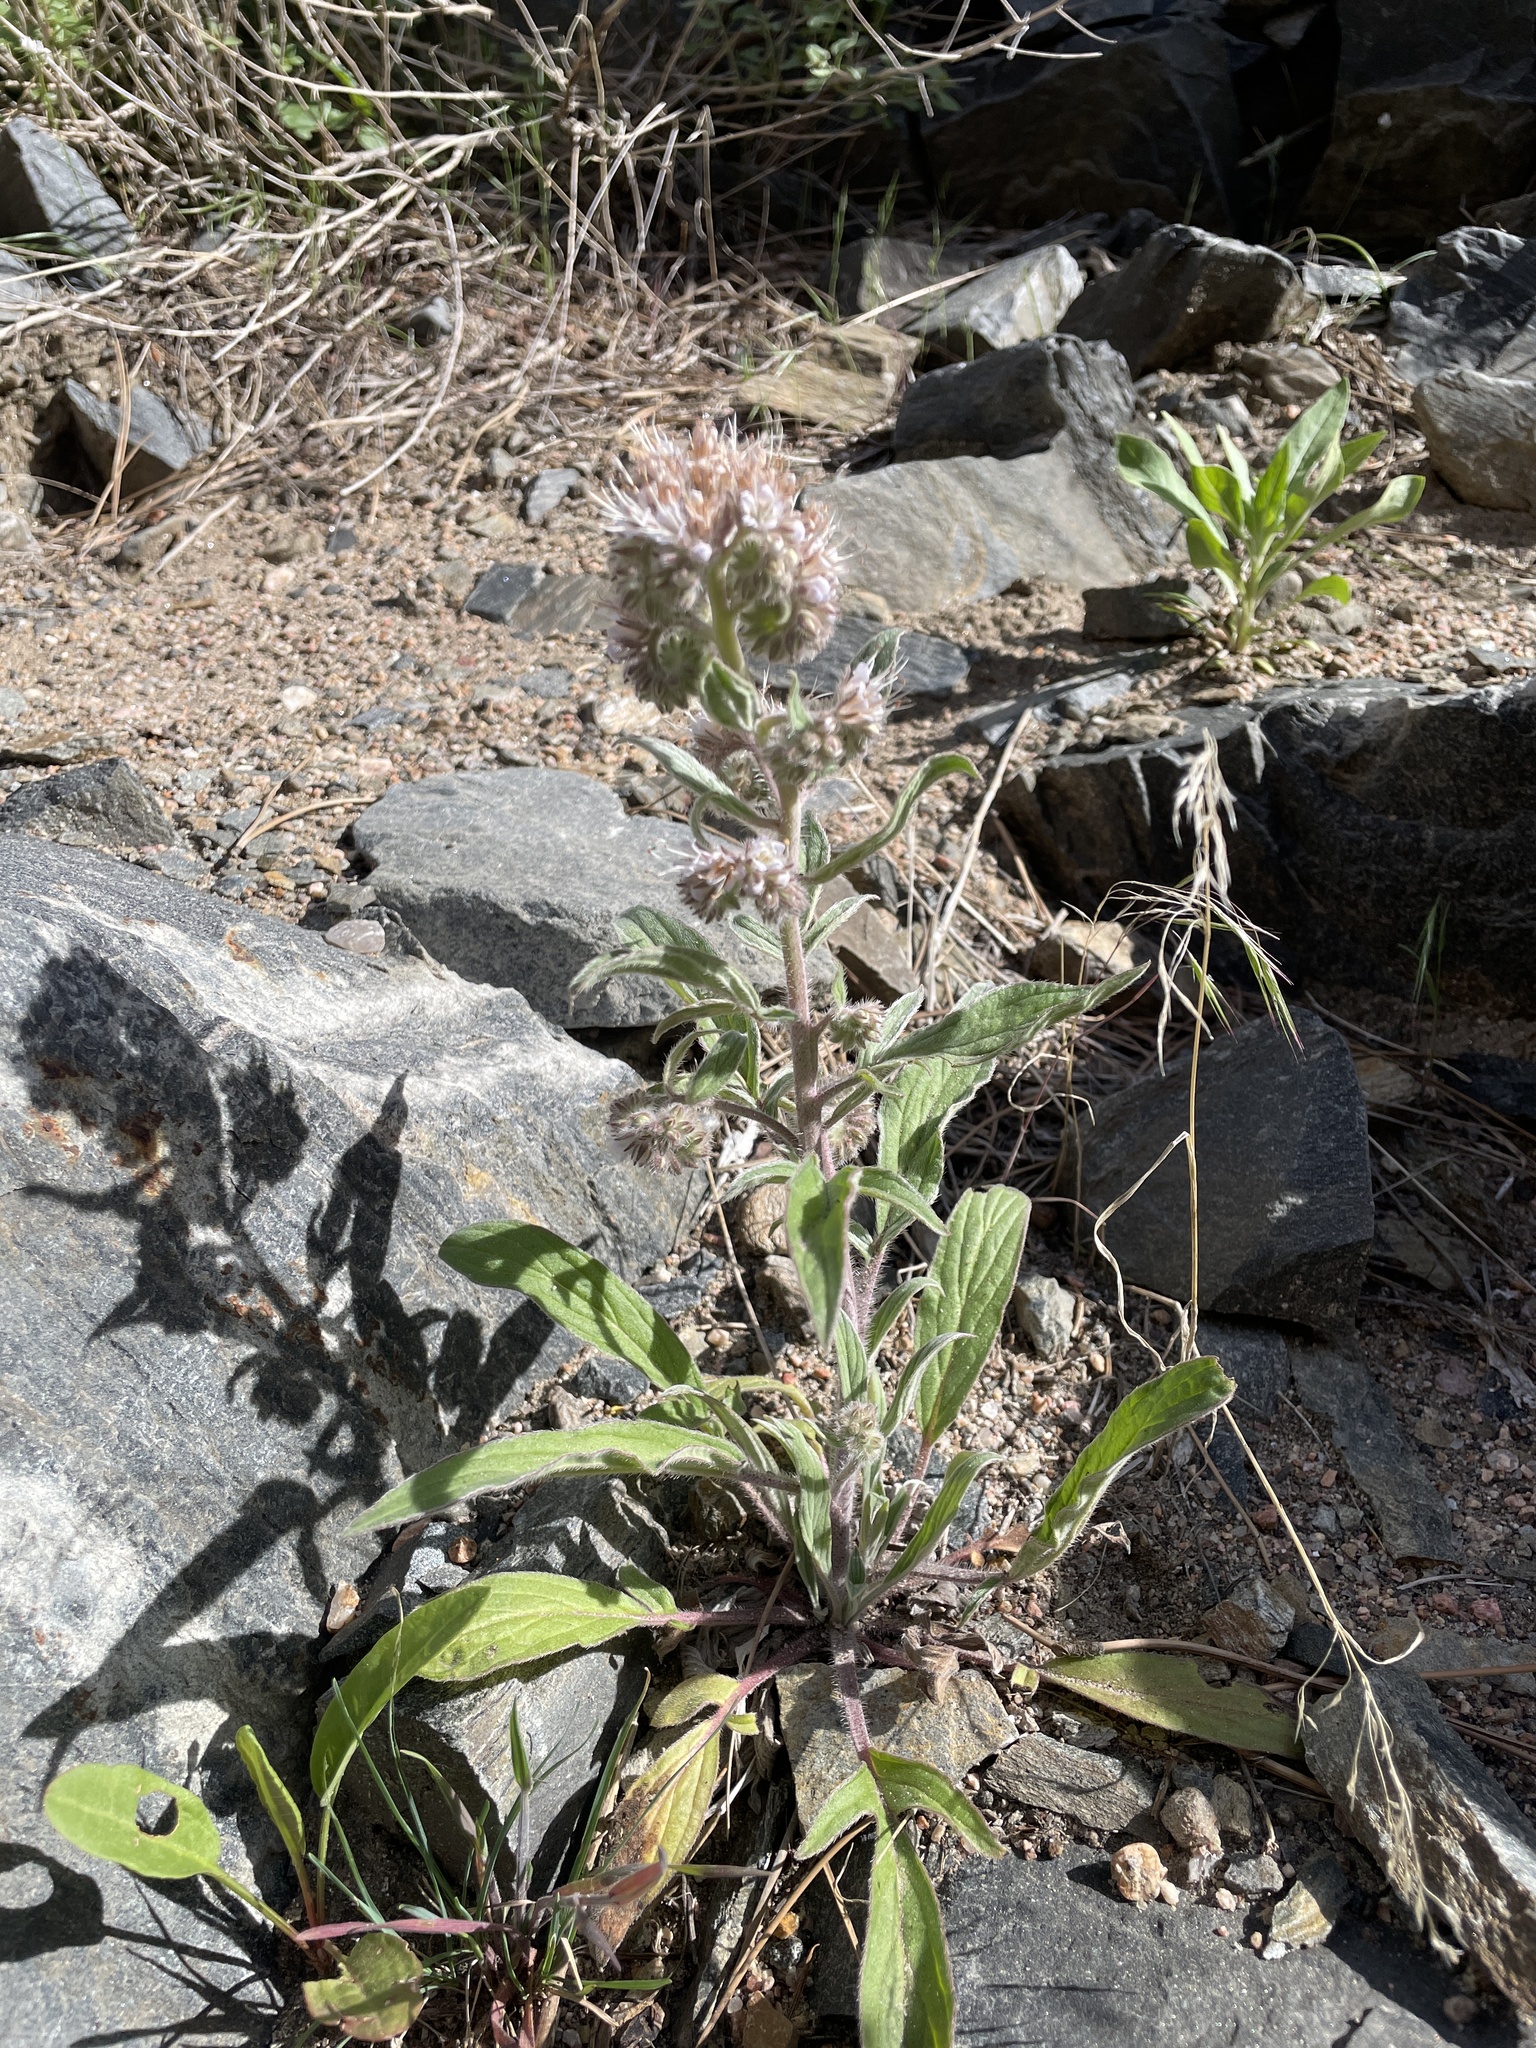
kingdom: Plantae
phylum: Tracheophyta
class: Magnoliopsida
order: Boraginales
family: Hydrophyllaceae
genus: Phacelia
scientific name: Phacelia hastata
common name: Silver-leaved phacelia
